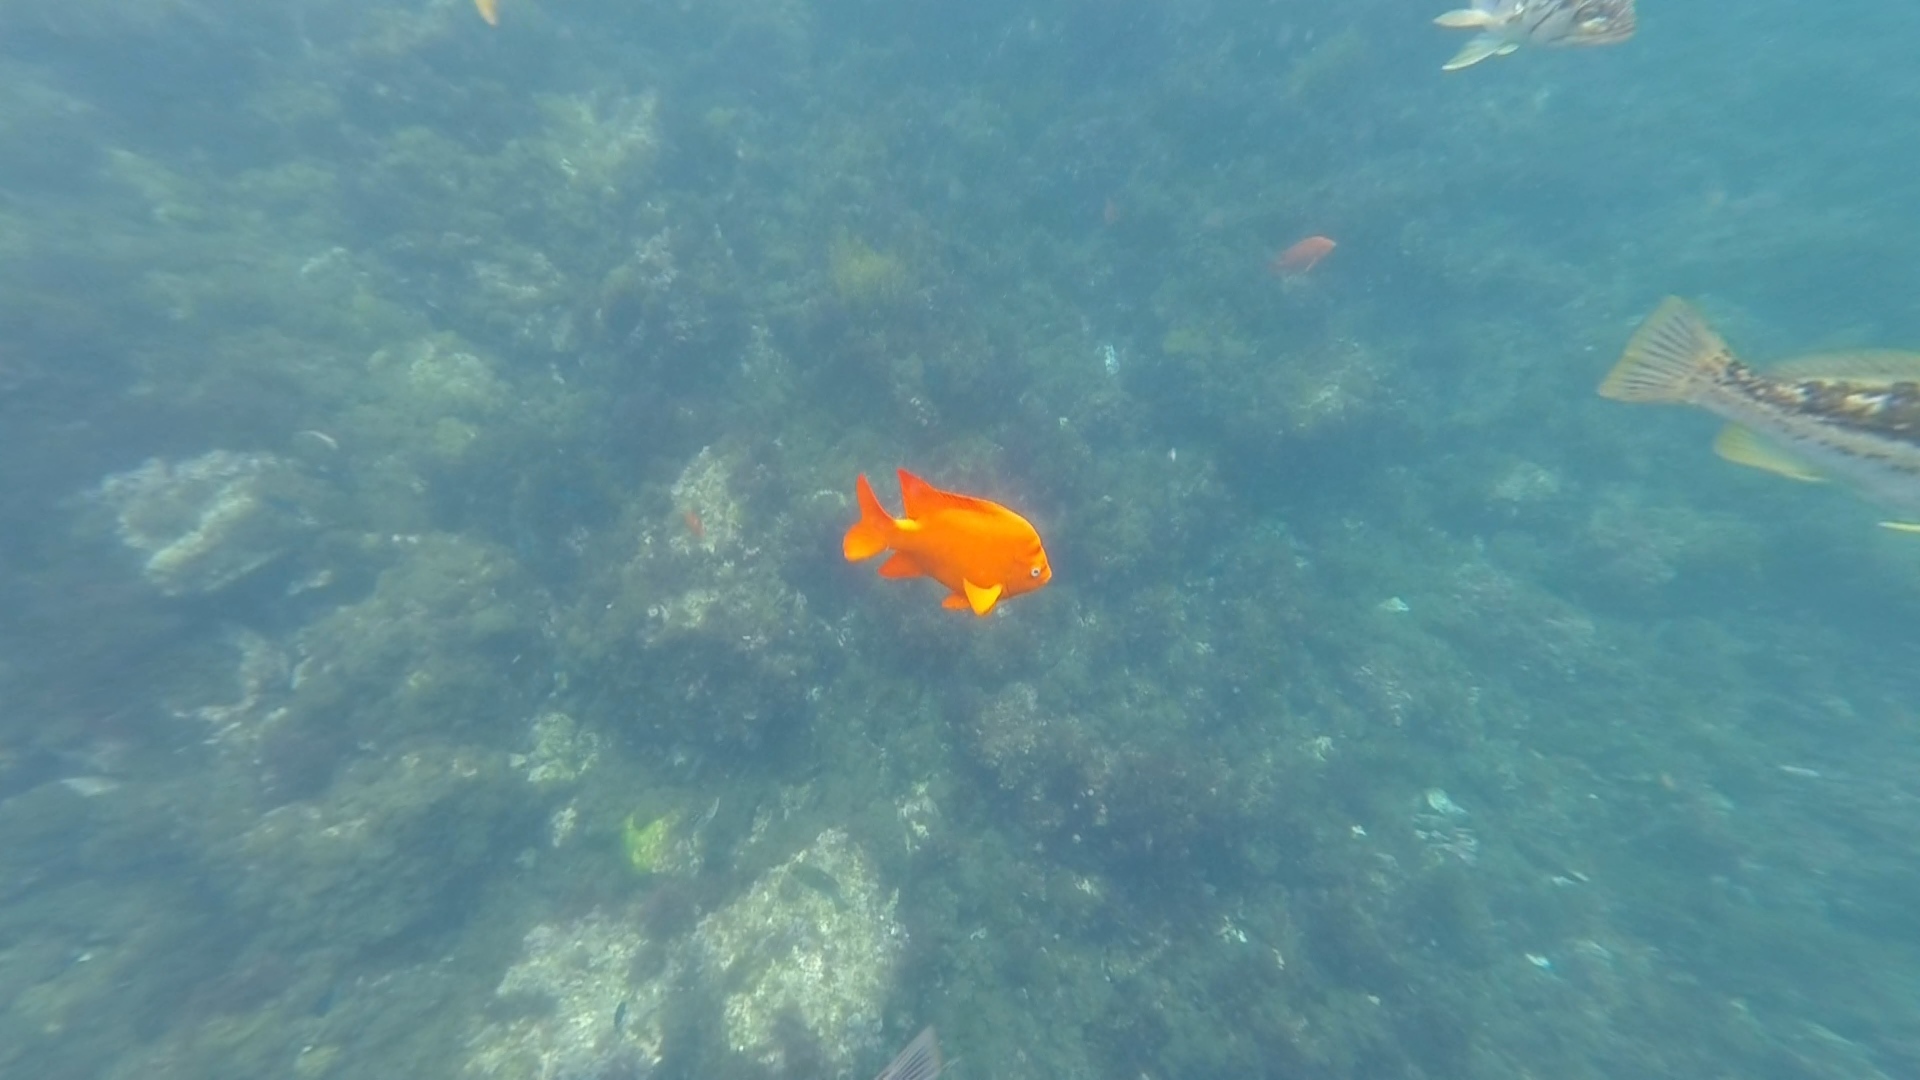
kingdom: Animalia
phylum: Chordata
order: Perciformes
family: Pomacentridae
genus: Hypsypops
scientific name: Hypsypops rubicundus
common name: Garibaldi
